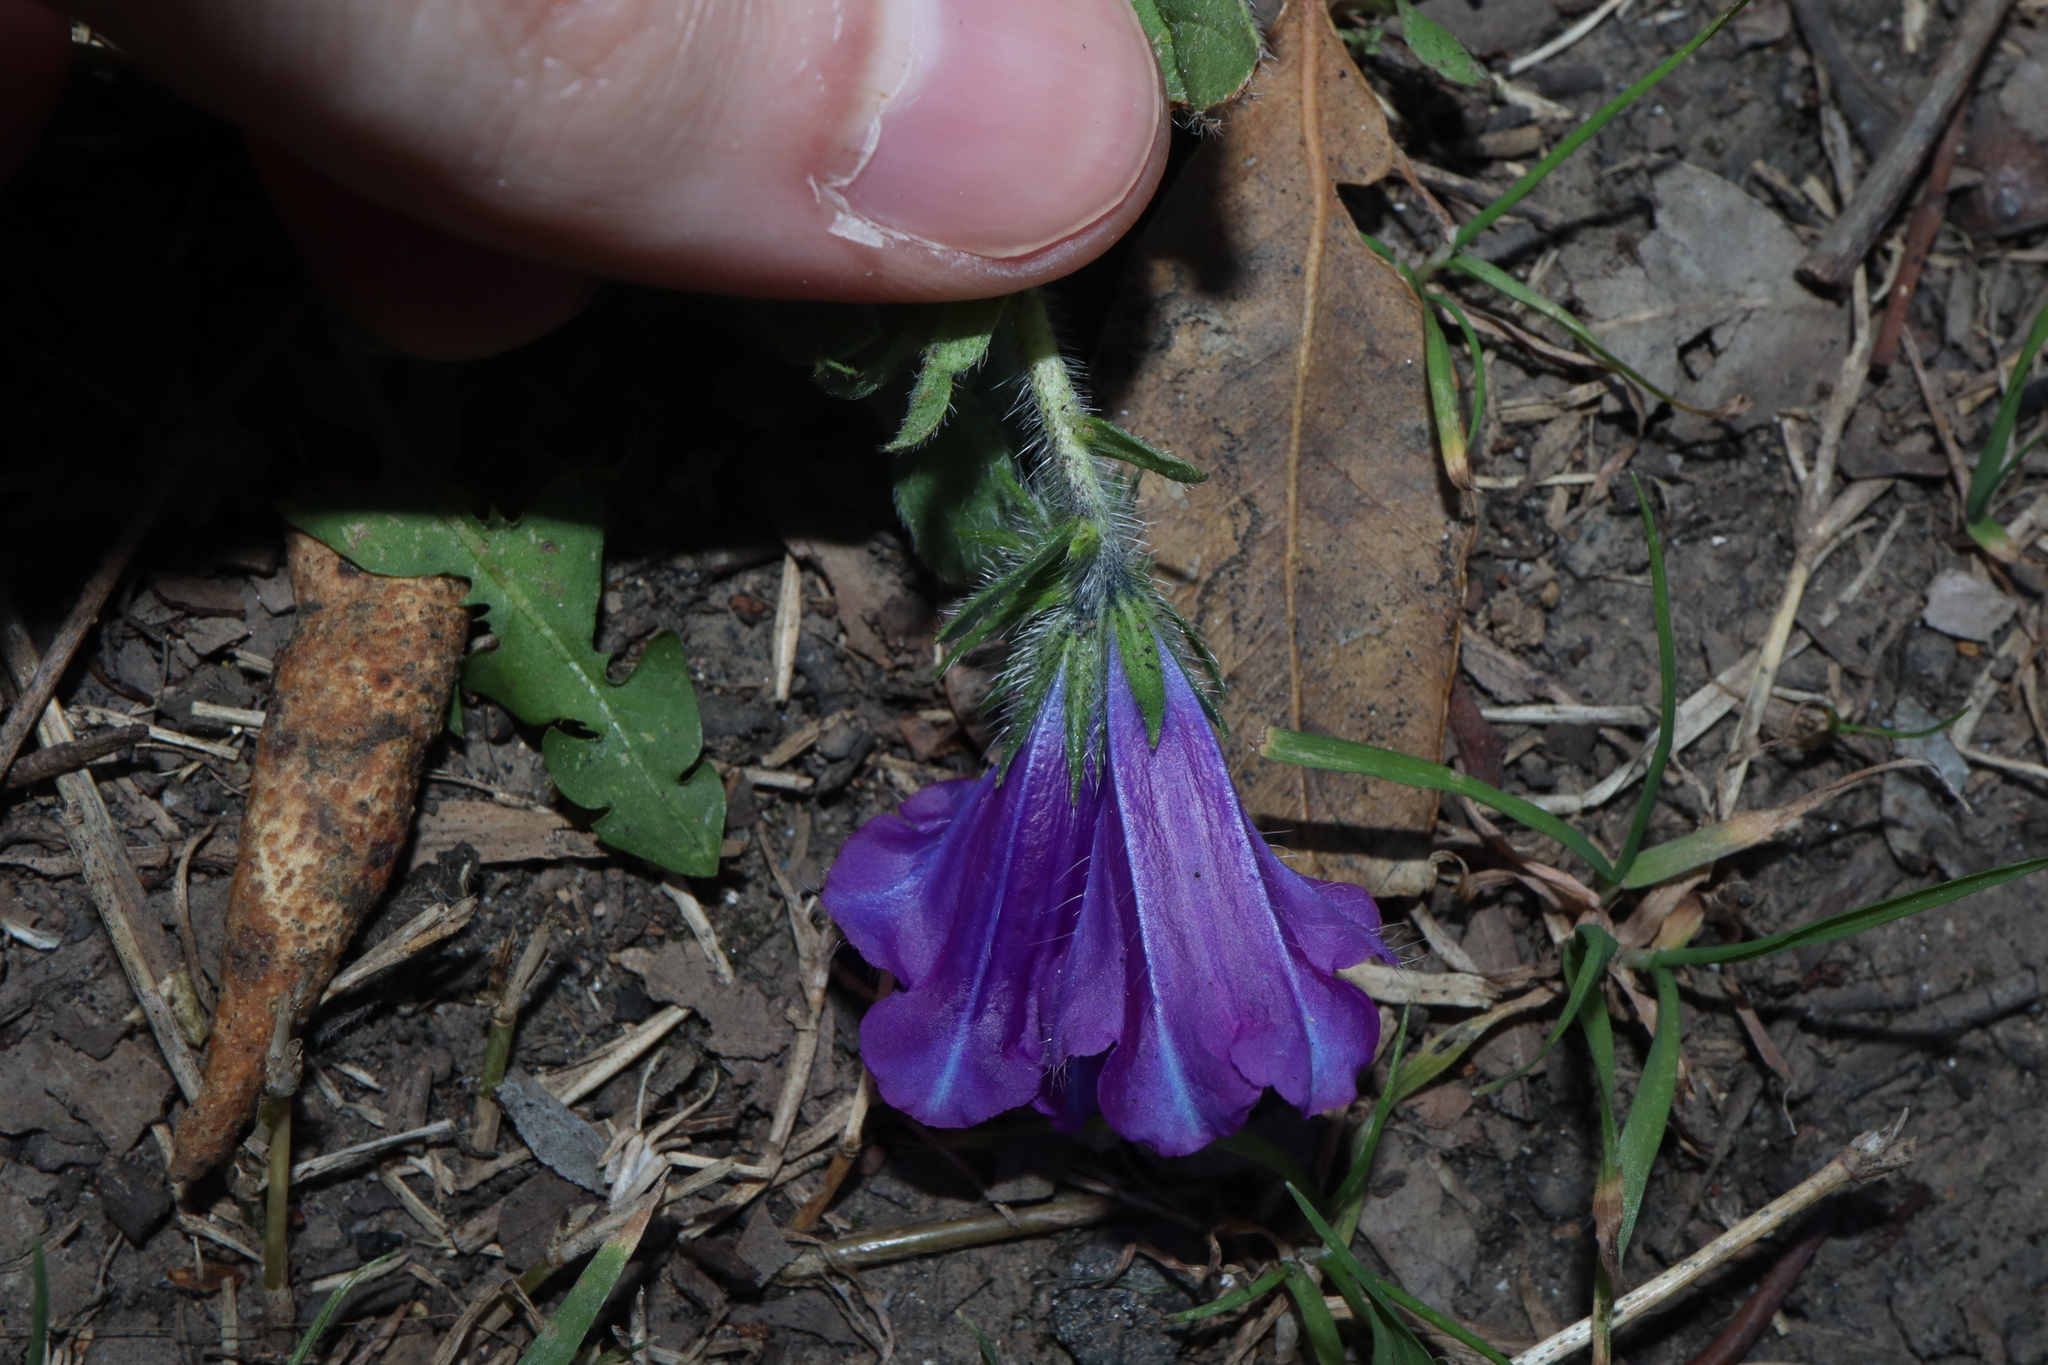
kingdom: Plantae
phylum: Tracheophyta
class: Magnoliopsida
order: Boraginales
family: Boraginaceae
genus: Echium
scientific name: Echium plantagineum
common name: Purple viper's-bugloss
